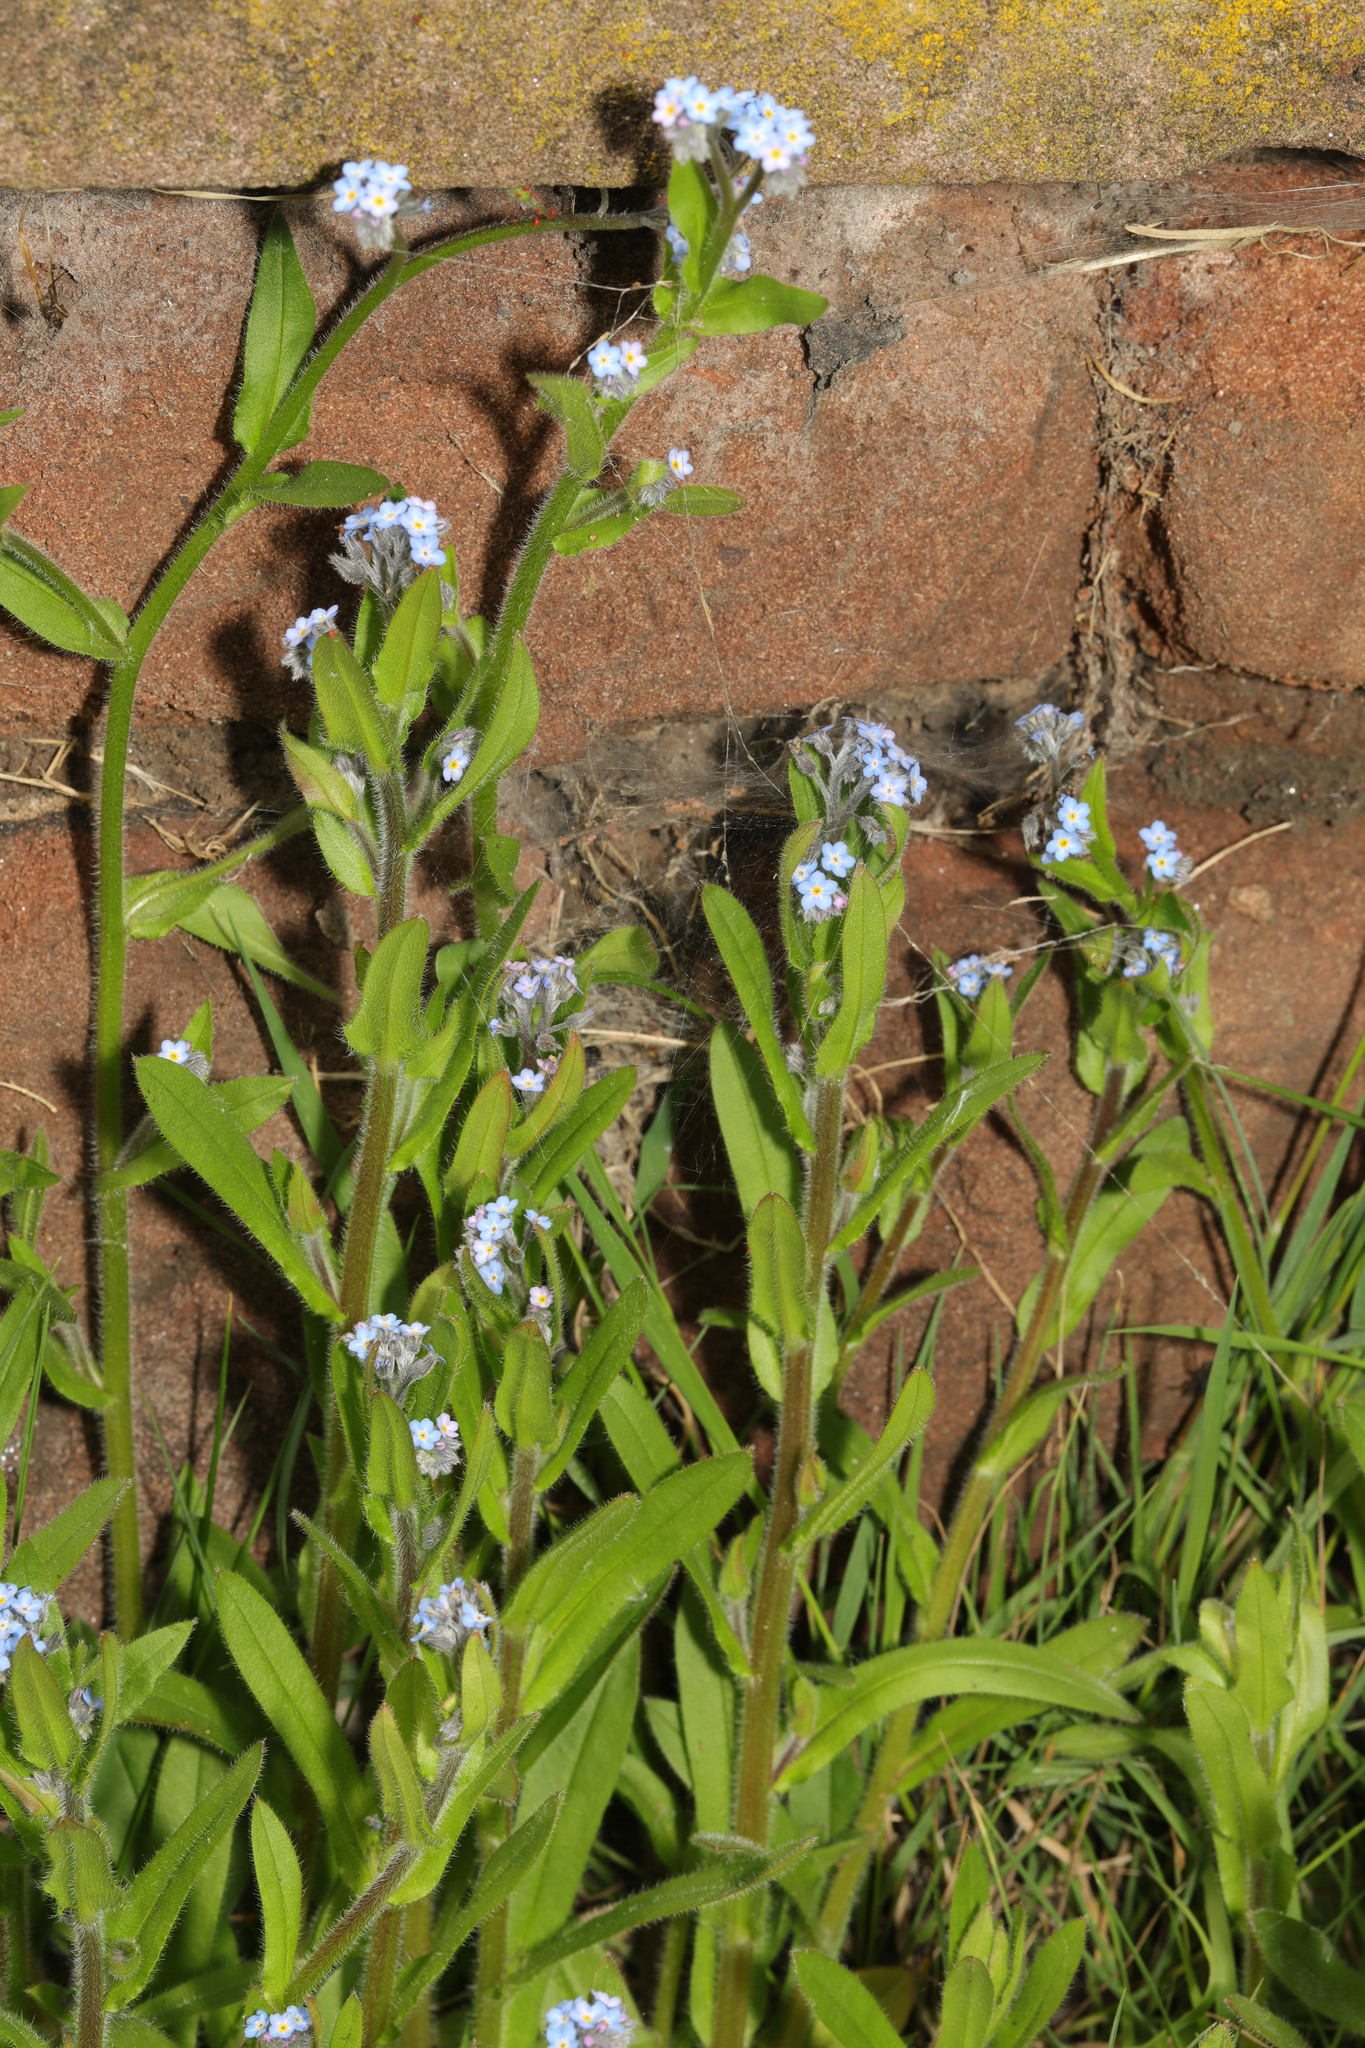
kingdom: Plantae
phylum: Tracheophyta
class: Magnoliopsida
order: Boraginales
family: Boraginaceae
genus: Myosotis
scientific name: Myosotis arvensis
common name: Field forget-me-not
